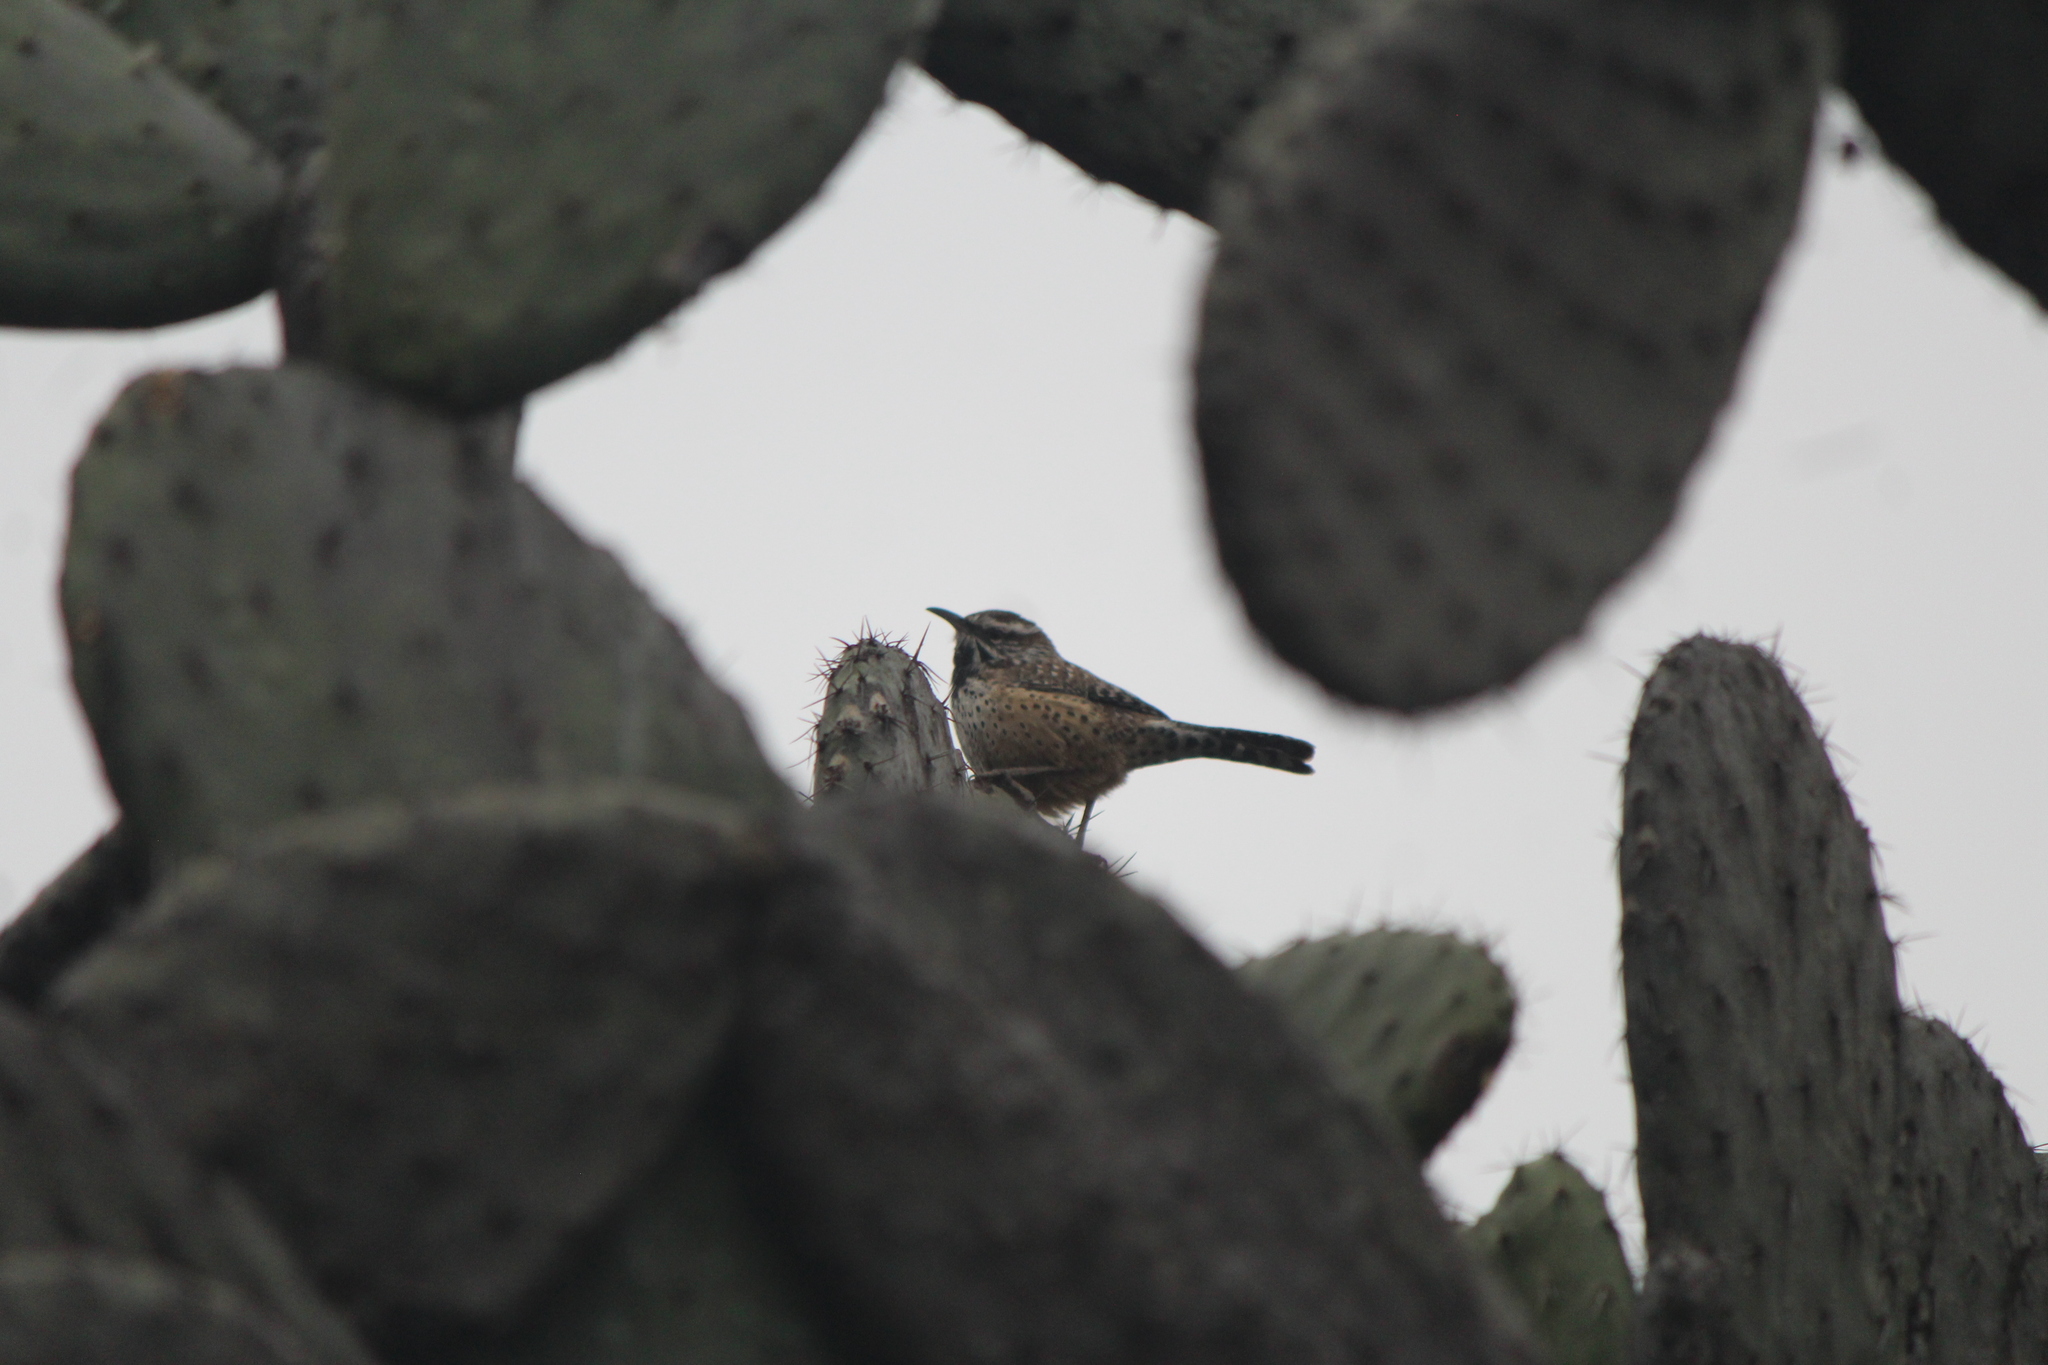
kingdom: Animalia
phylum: Chordata
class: Aves
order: Passeriformes
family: Troglodytidae
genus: Campylorhynchus
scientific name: Campylorhynchus brunneicapillus
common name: Cactus wren
